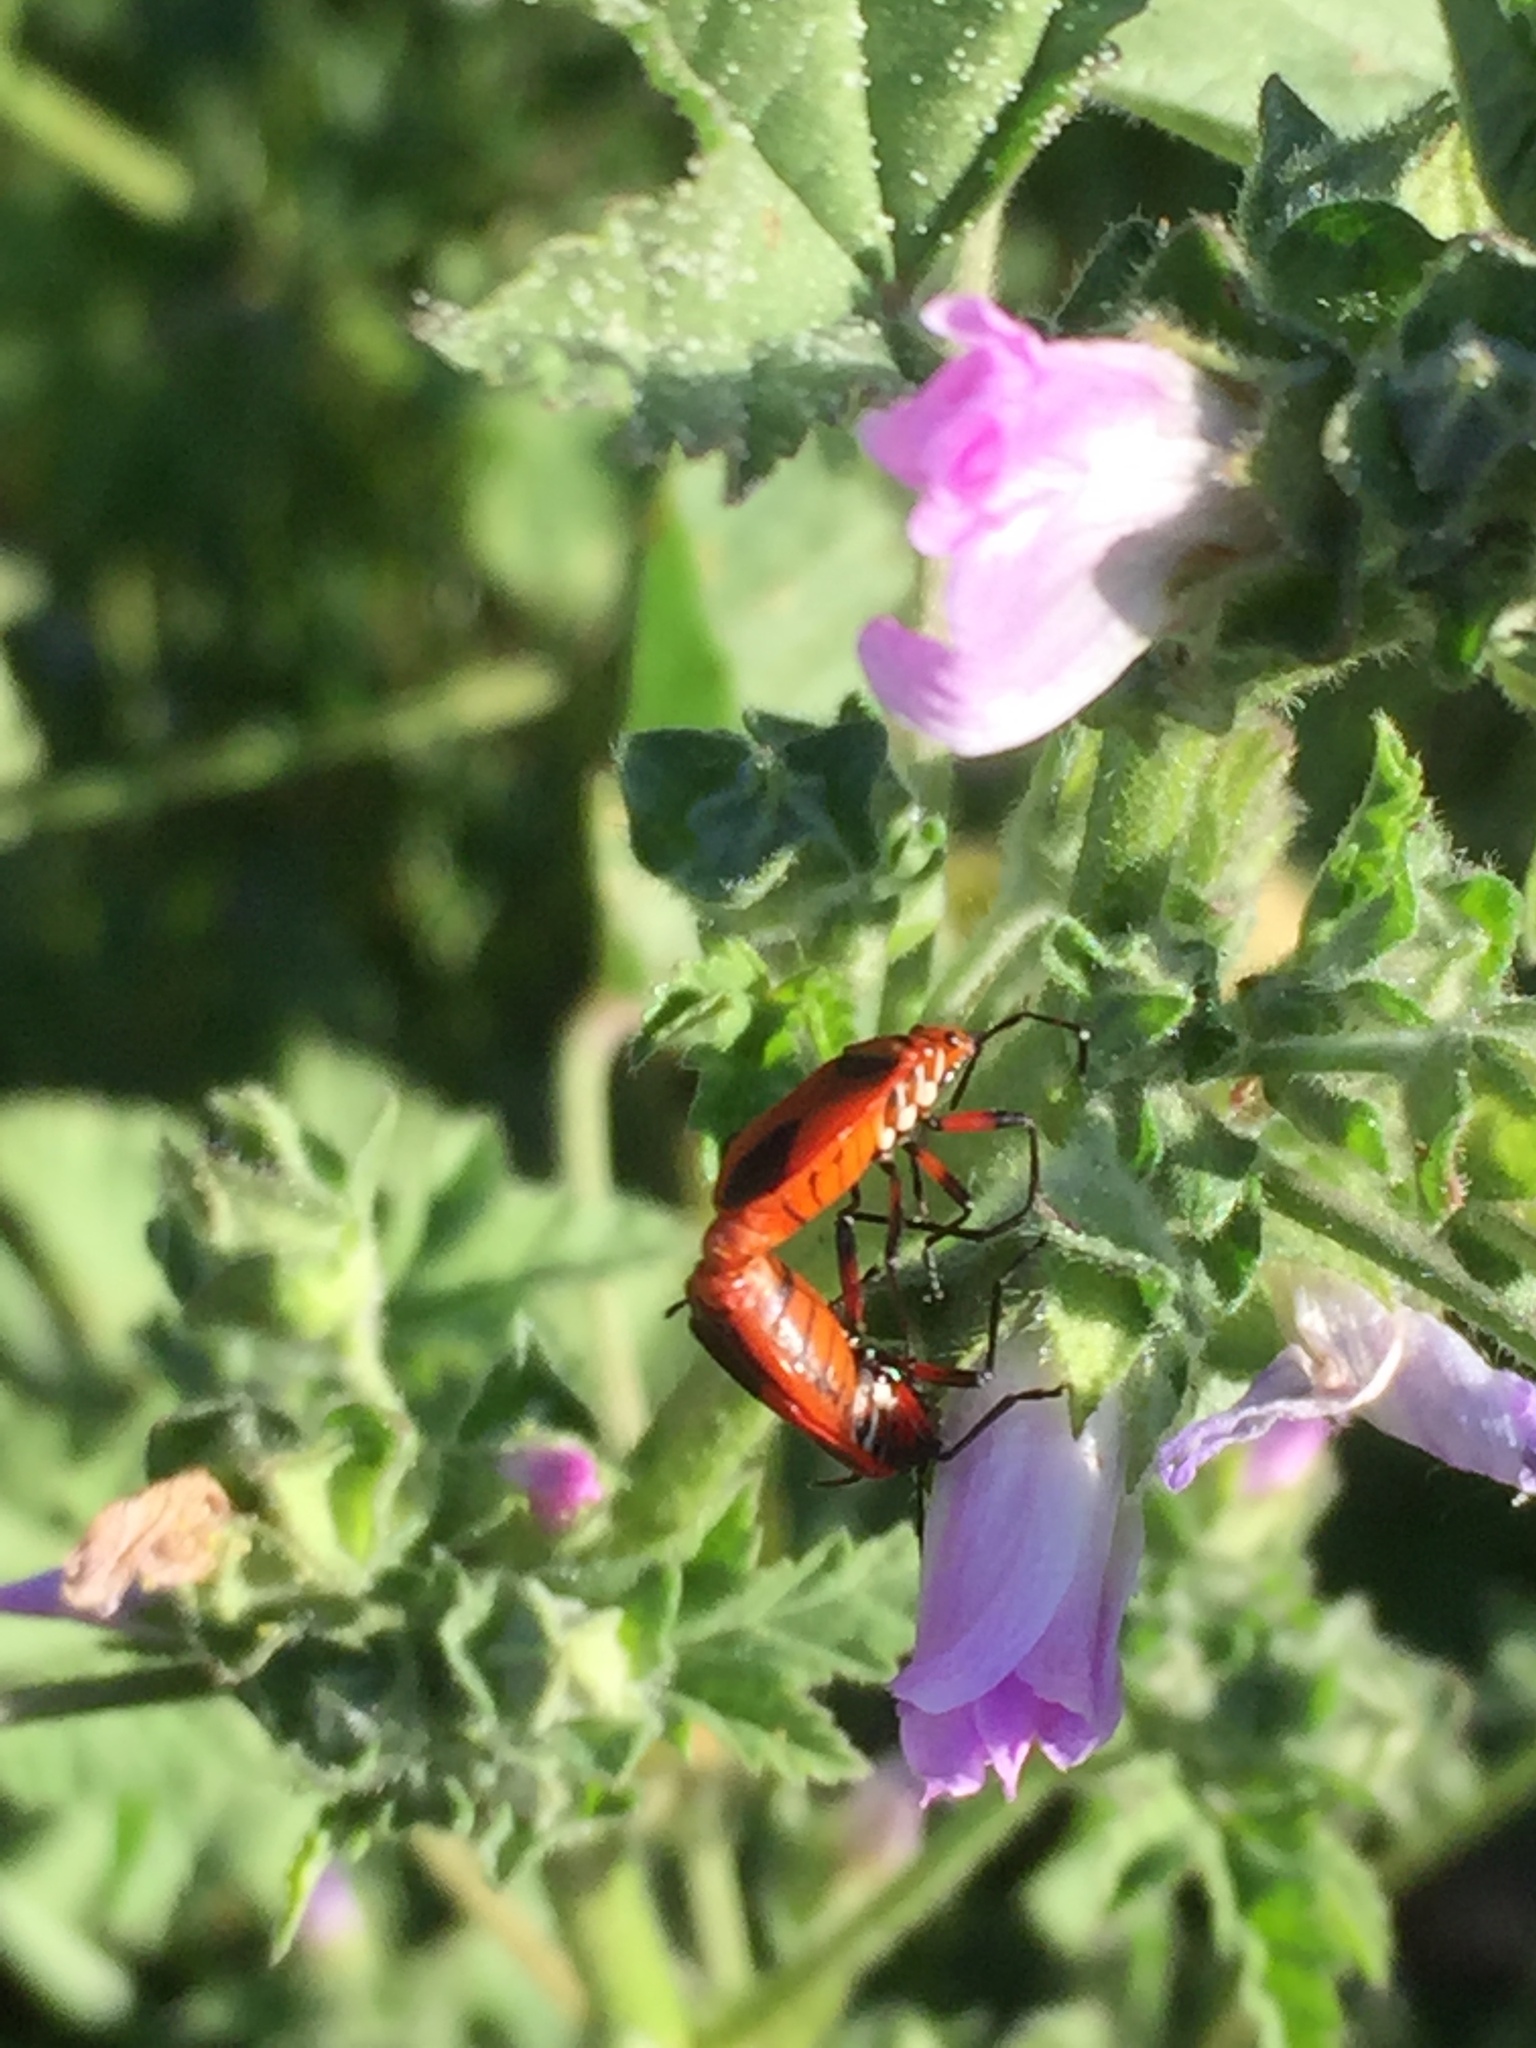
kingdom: Animalia
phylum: Arthropoda
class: Insecta
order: Hemiptera
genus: Cenaeus
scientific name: Cenaeus
